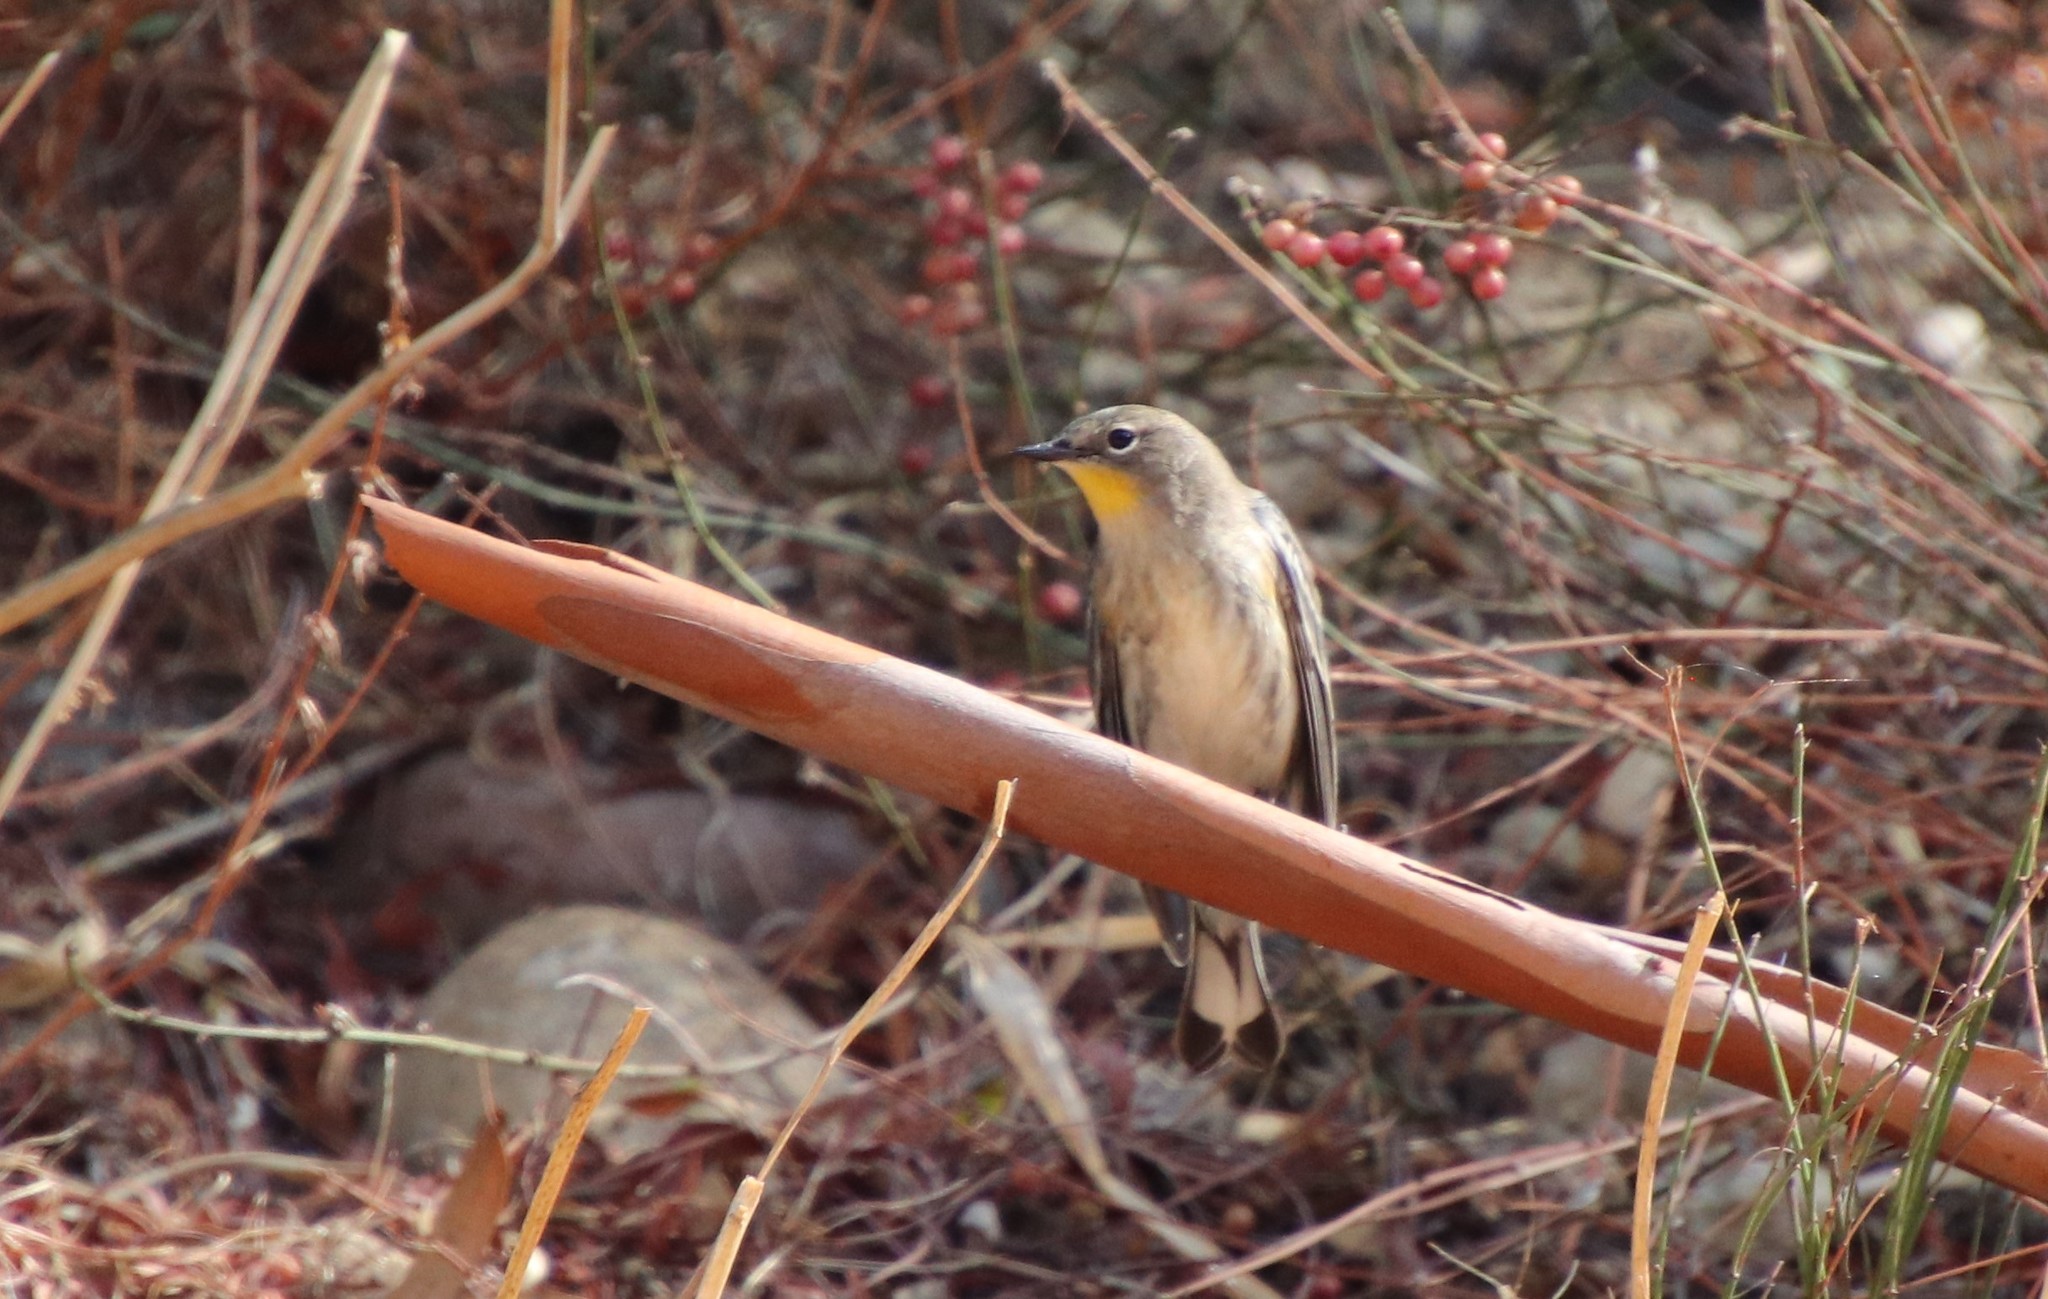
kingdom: Animalia
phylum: Chordata
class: Aves
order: Passeriformes
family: Parulidae
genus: Setophaga
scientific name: Setophaga auduboni
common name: Audubon's warbler
